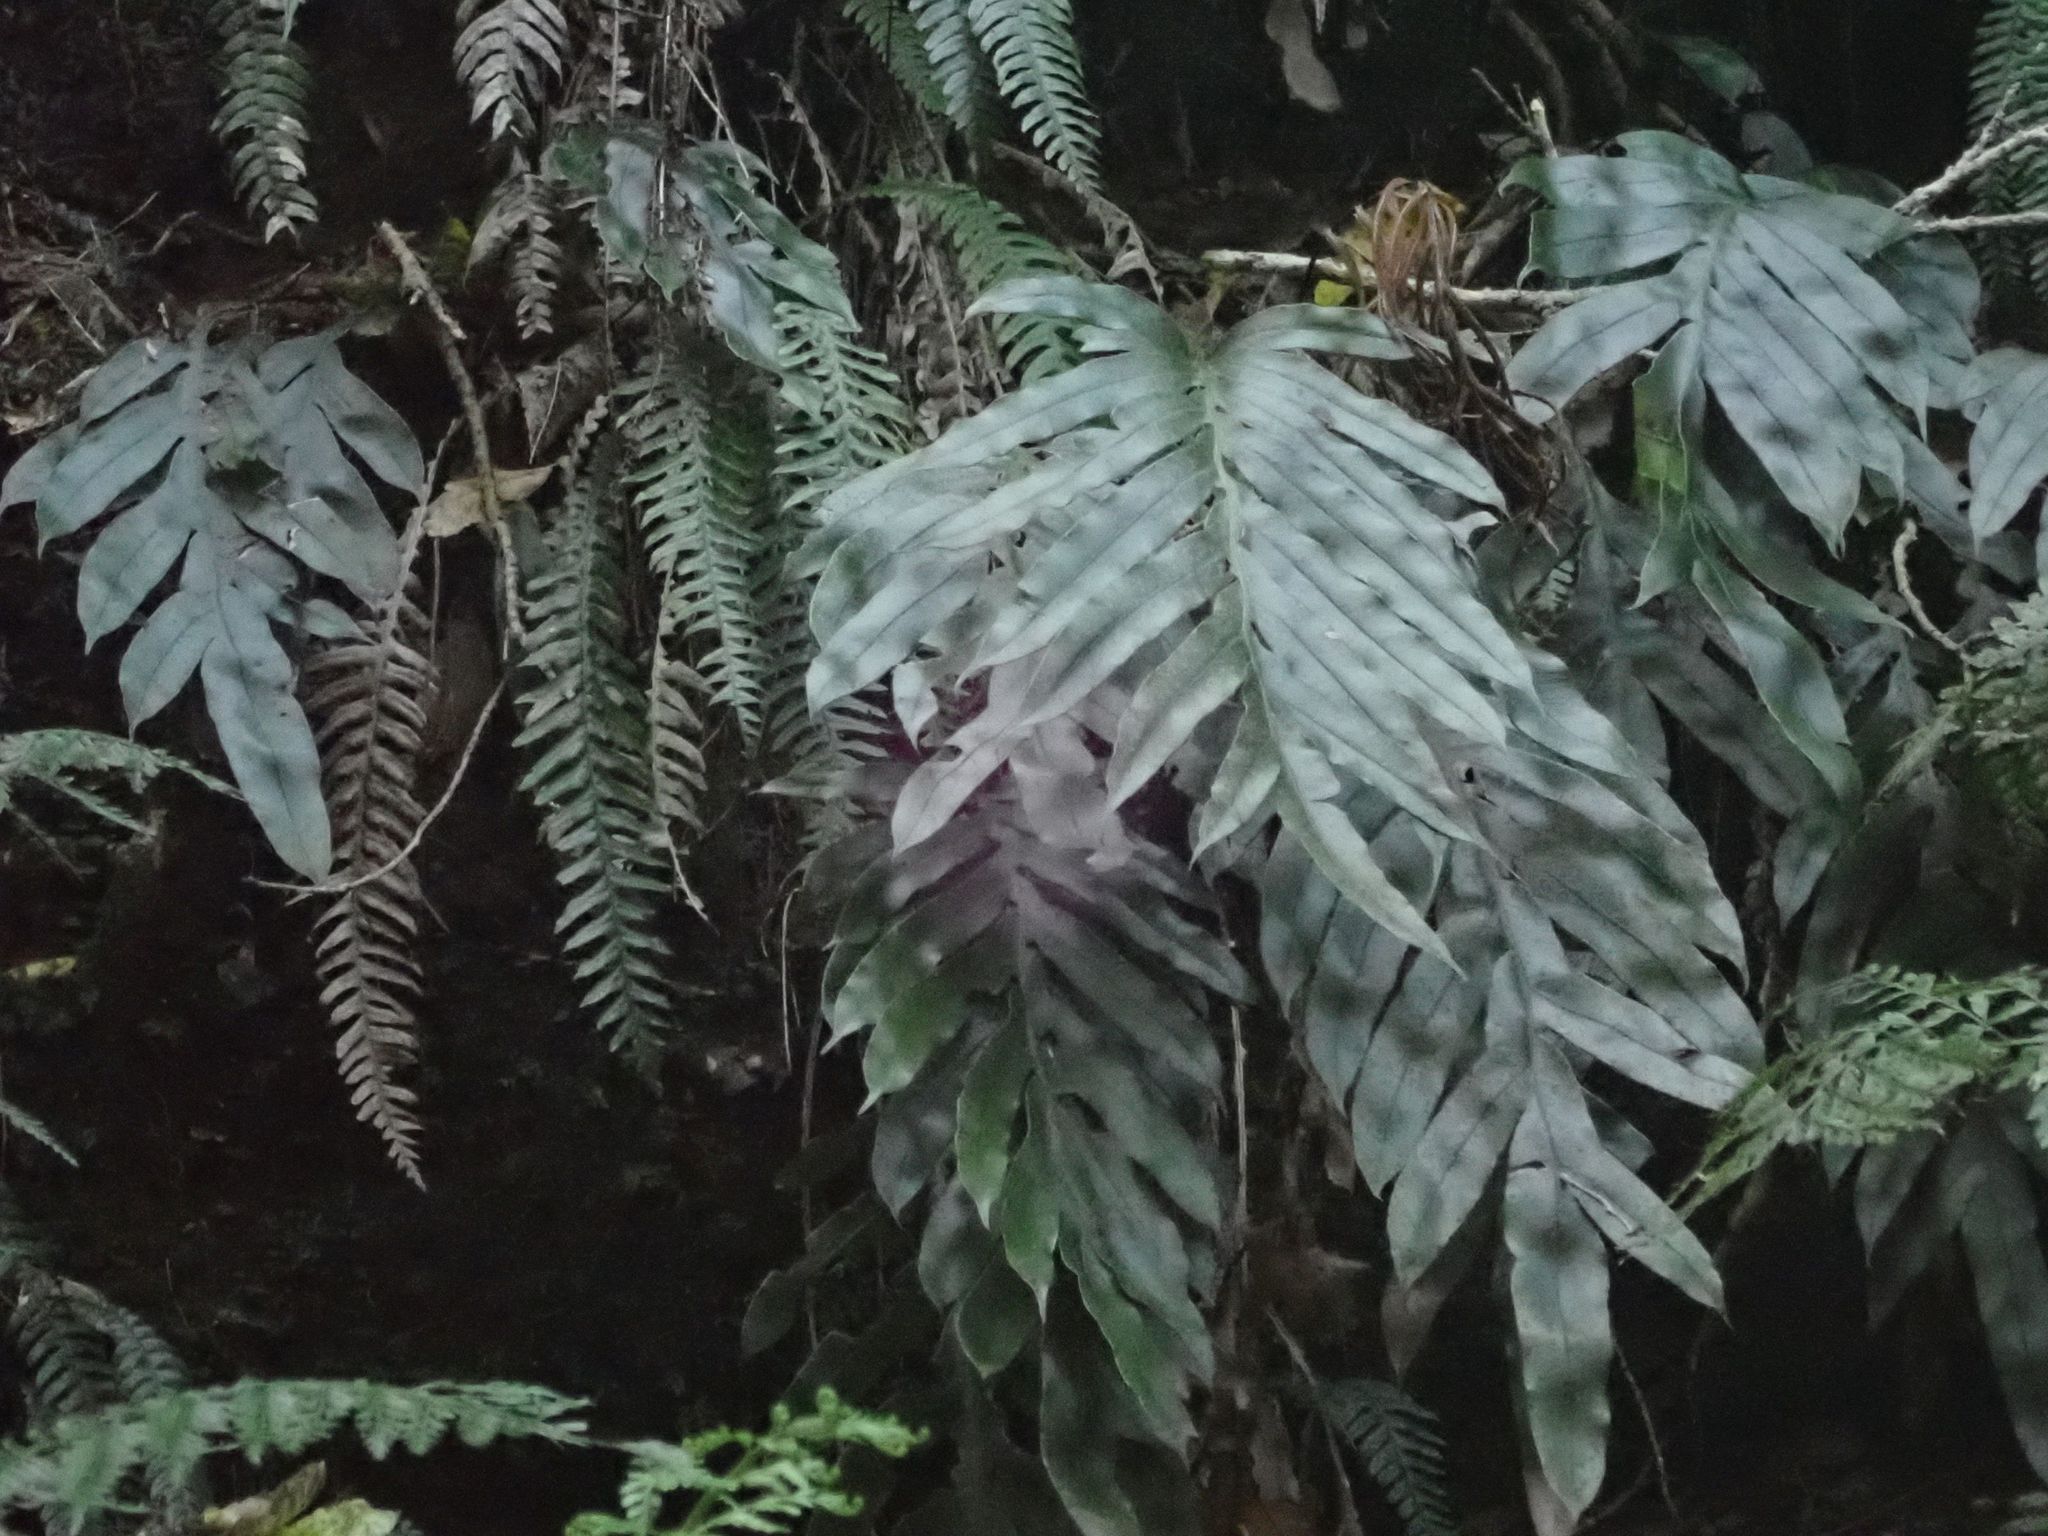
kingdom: Plantae
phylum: Tracheophyta
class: Polypodiopsida
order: Polypodiales
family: Blechnaceae
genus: Austroblechnum
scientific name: Austroblechnum colensoi
